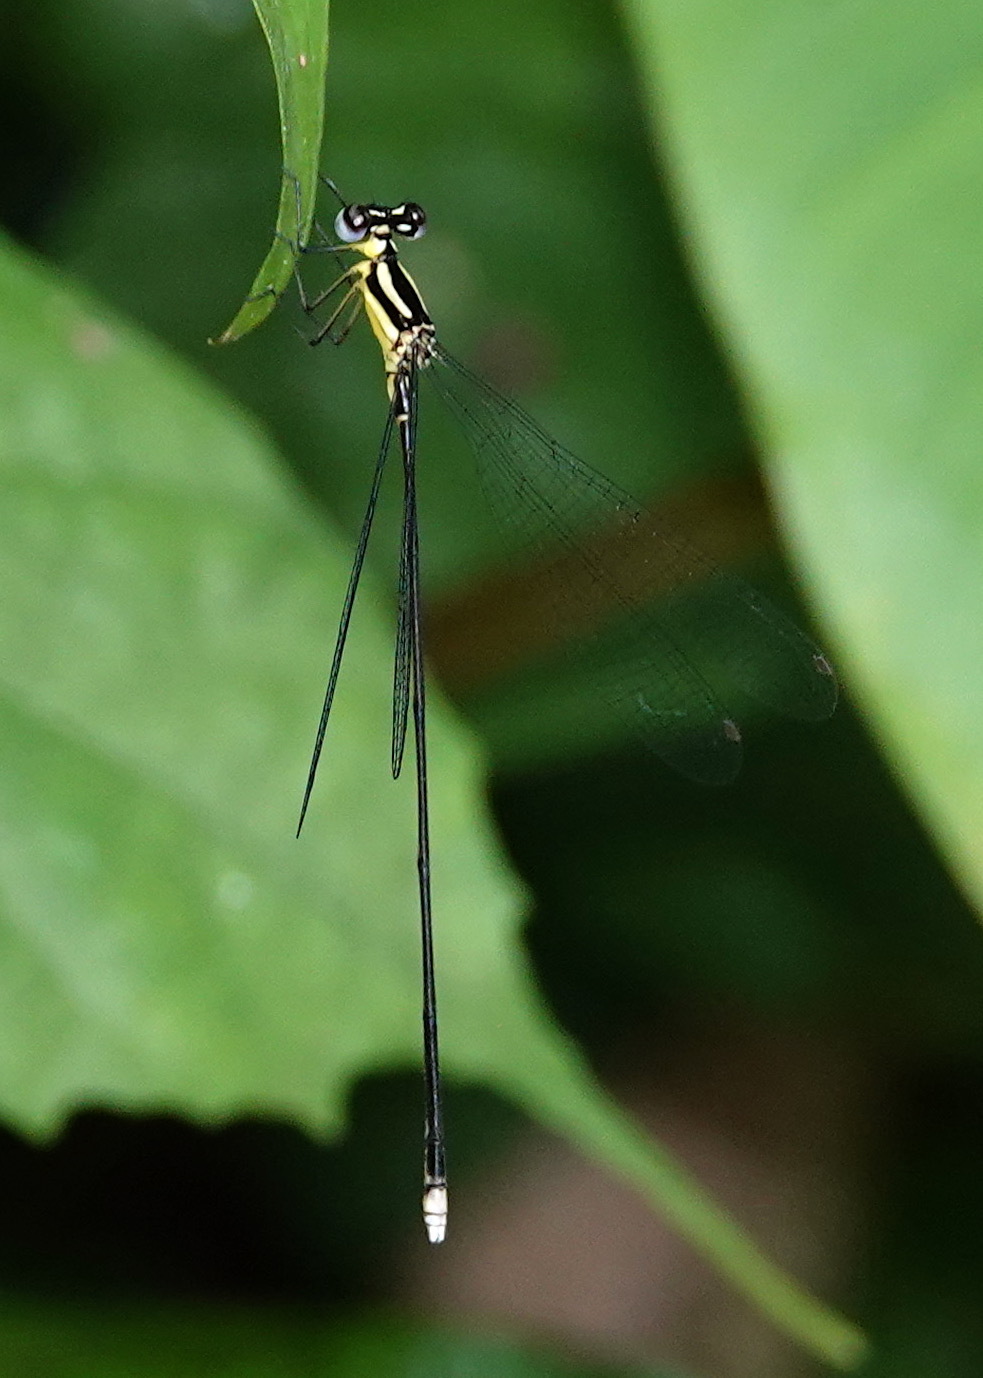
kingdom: Animalia
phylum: Arthropoda
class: Insecta
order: Odonata
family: Platycnemididae
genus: Coeliccia
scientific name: Coeliccia membranipes
